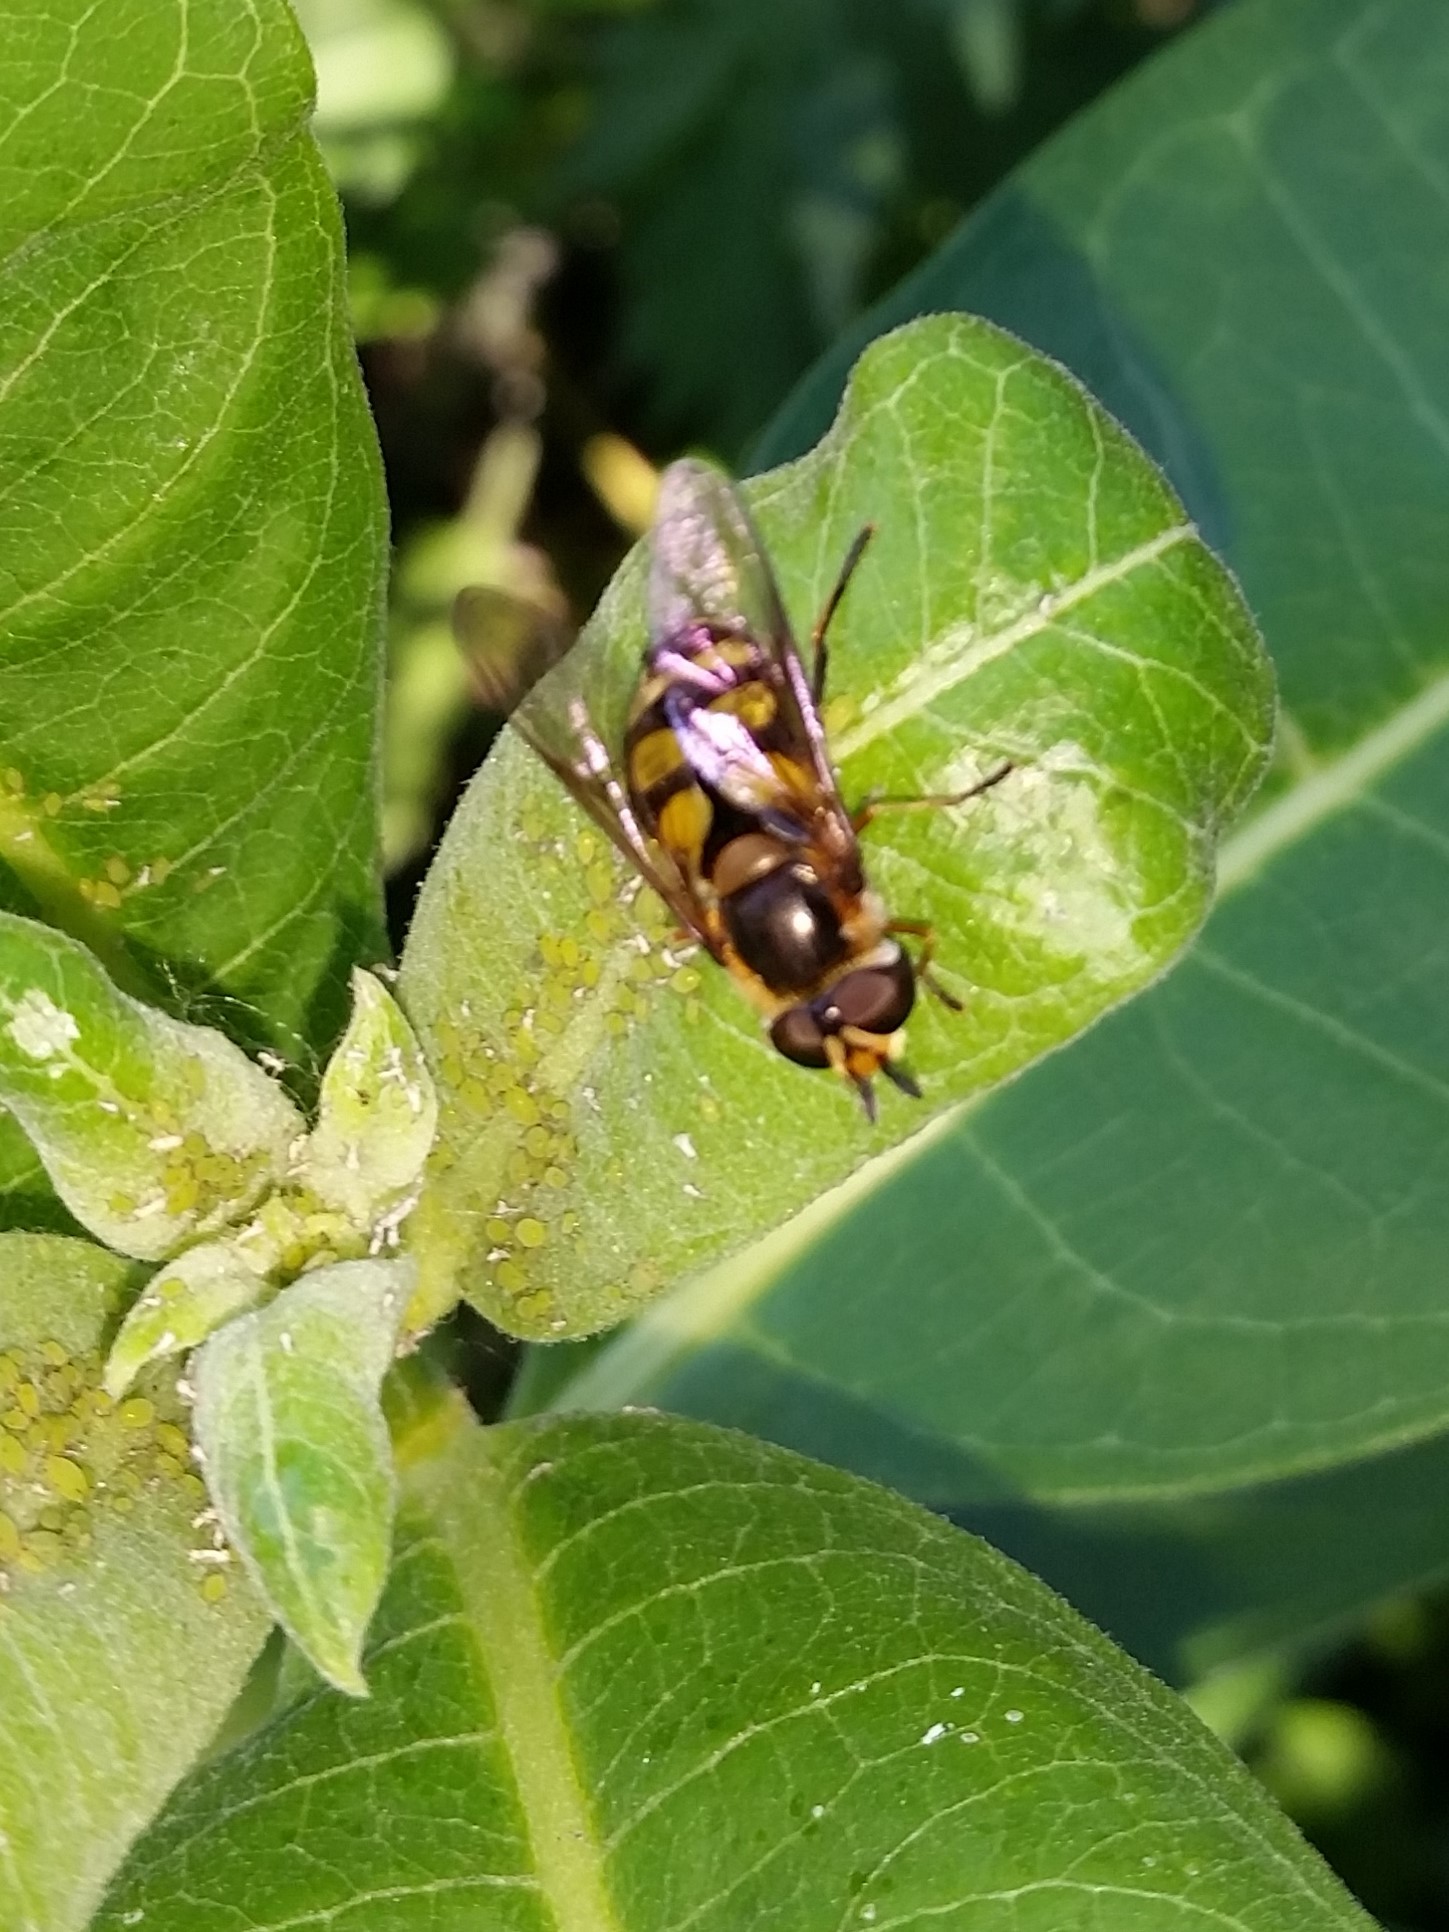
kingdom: Animalia
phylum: Arthropoda
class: Insecta
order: Diptera
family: Syrphidae
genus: Didea
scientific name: Didea fuscipes
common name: Undivided lucent
